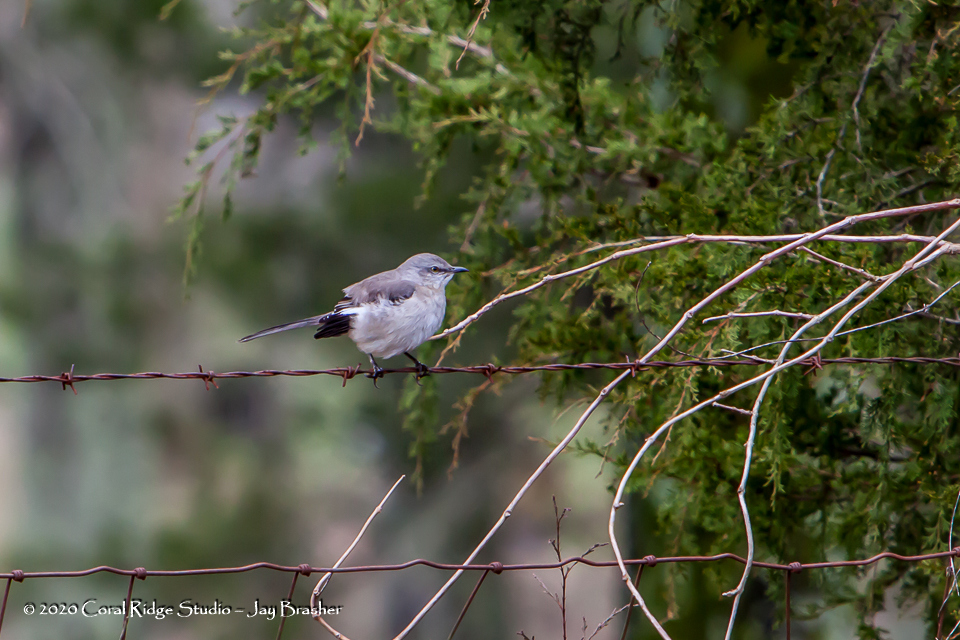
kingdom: Animalia
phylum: Chordata
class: Aves
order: Passeriformes
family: Mimidae
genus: Mimus
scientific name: Mimus polyglottos
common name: Northern mockingbird
